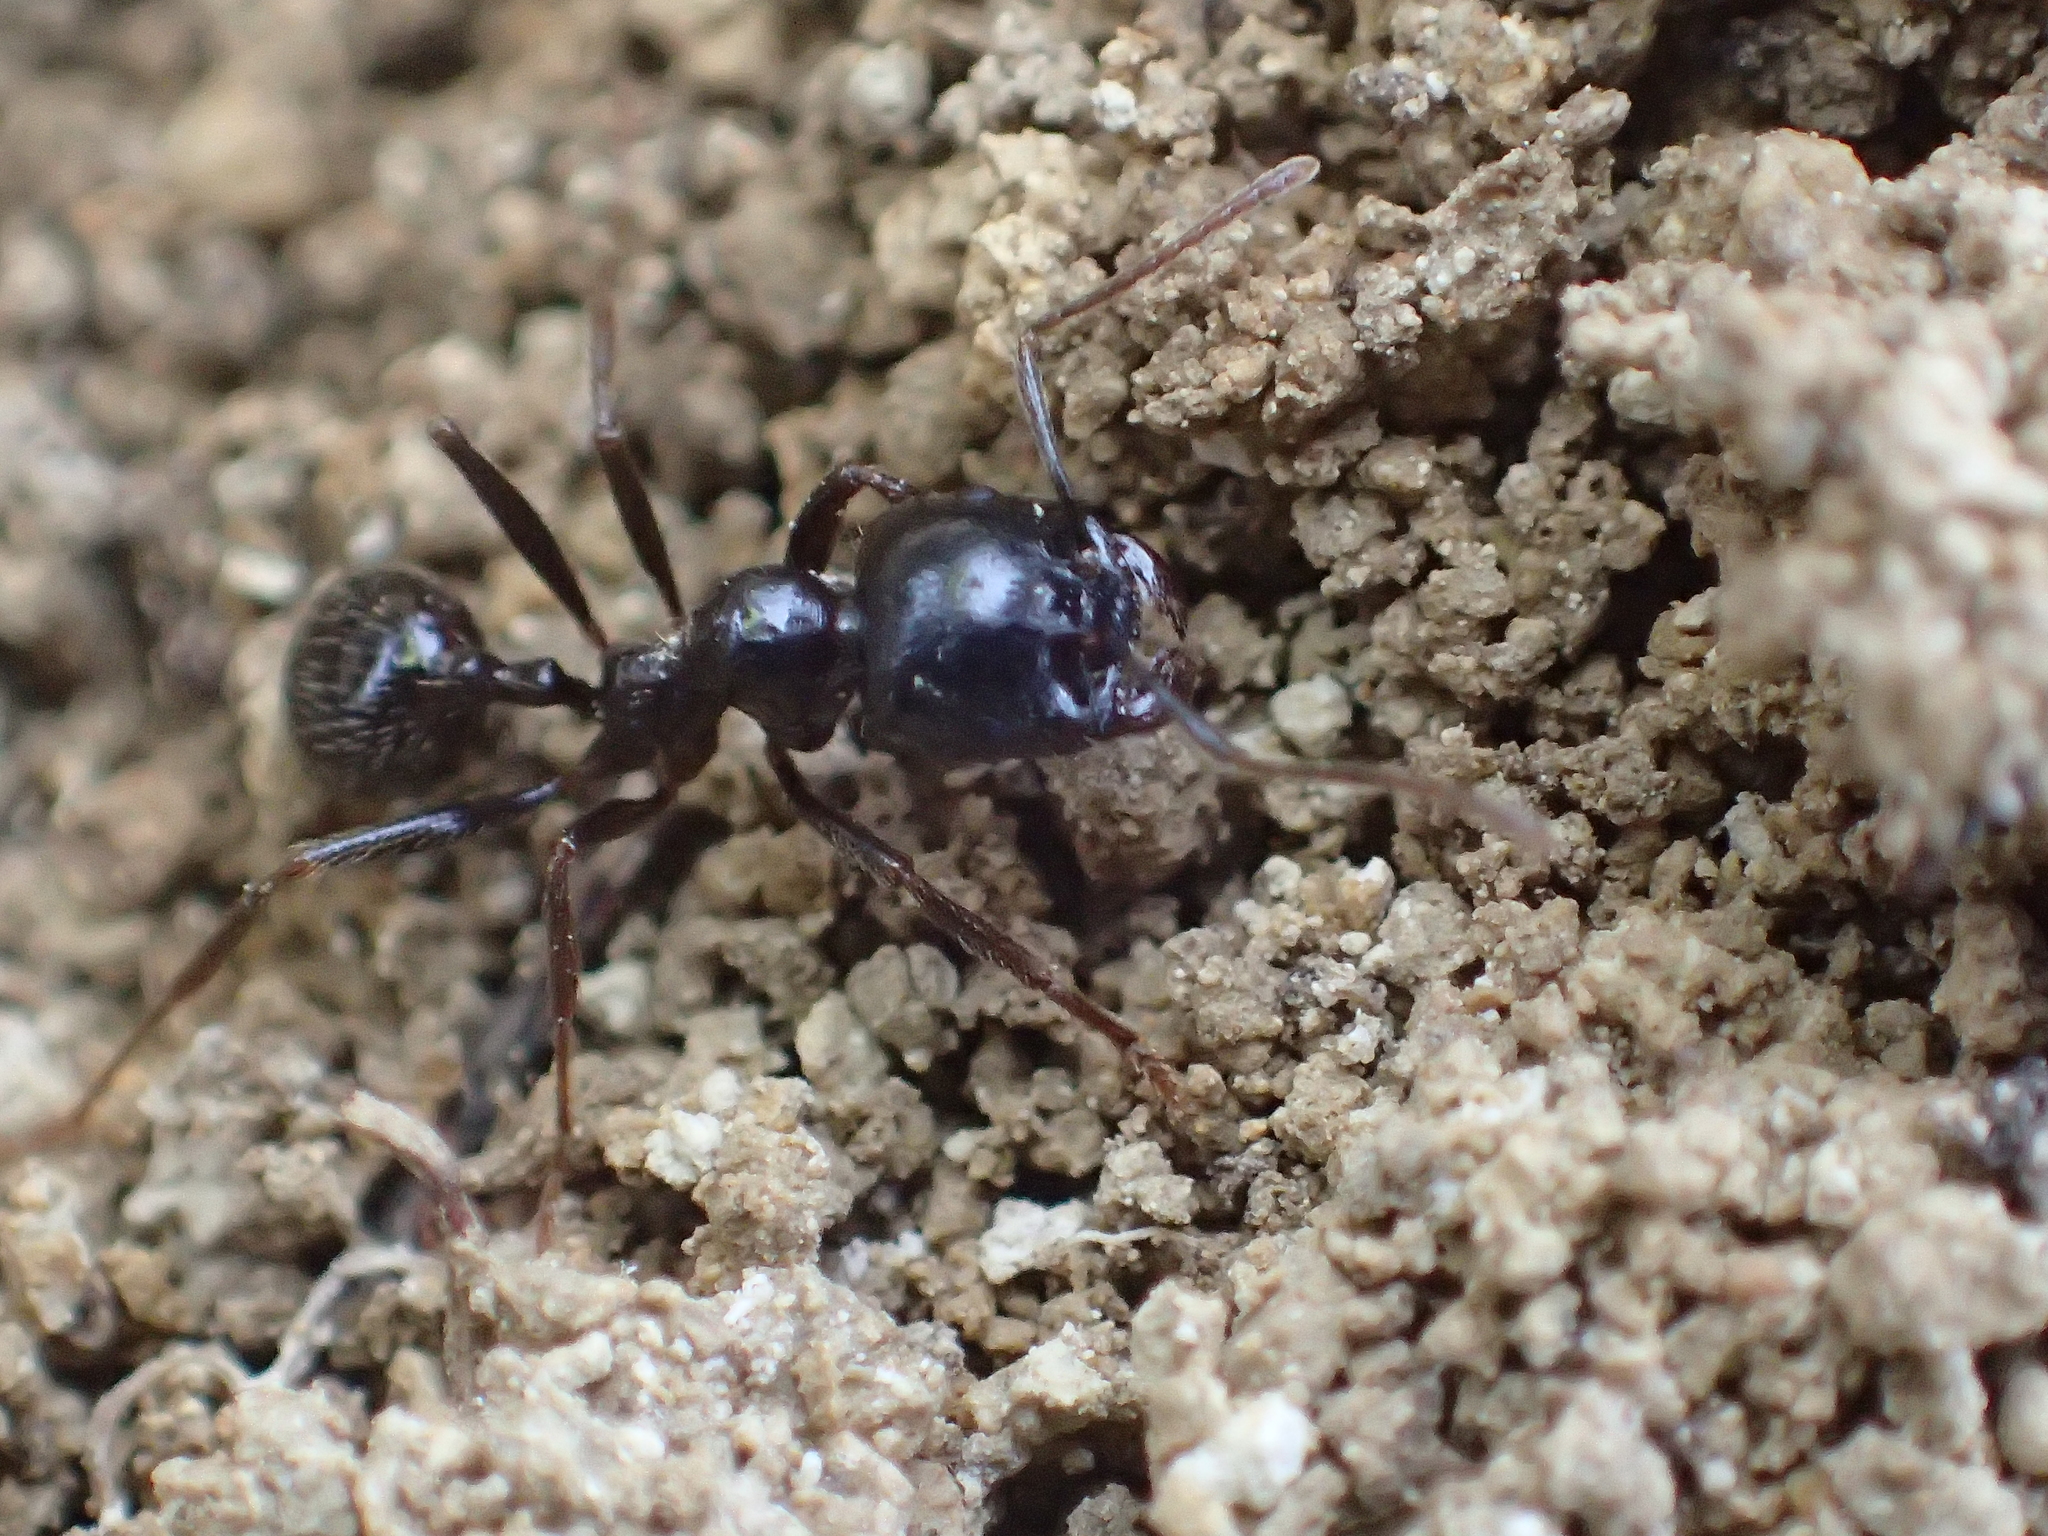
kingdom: Animalia
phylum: Arthropoda
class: Insecta
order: Hymenoptera
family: Formicidae
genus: Messor
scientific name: Messor capitatus
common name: European seed harvesting ant
